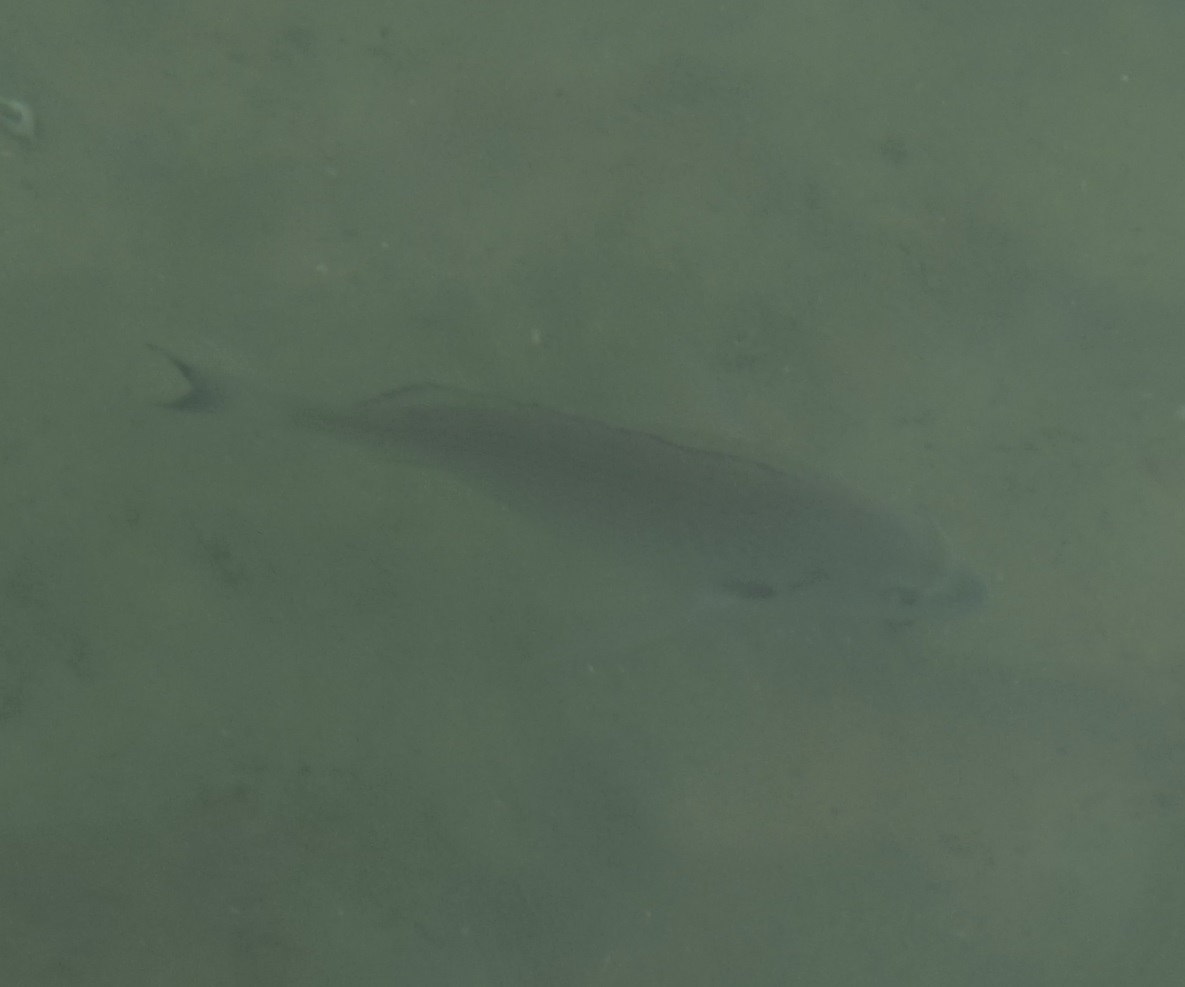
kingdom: Animalia
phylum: Chordata
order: Perciformes
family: Sparidae
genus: Acanthopagrus
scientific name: Acanthopagrus australis
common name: Surf bream
